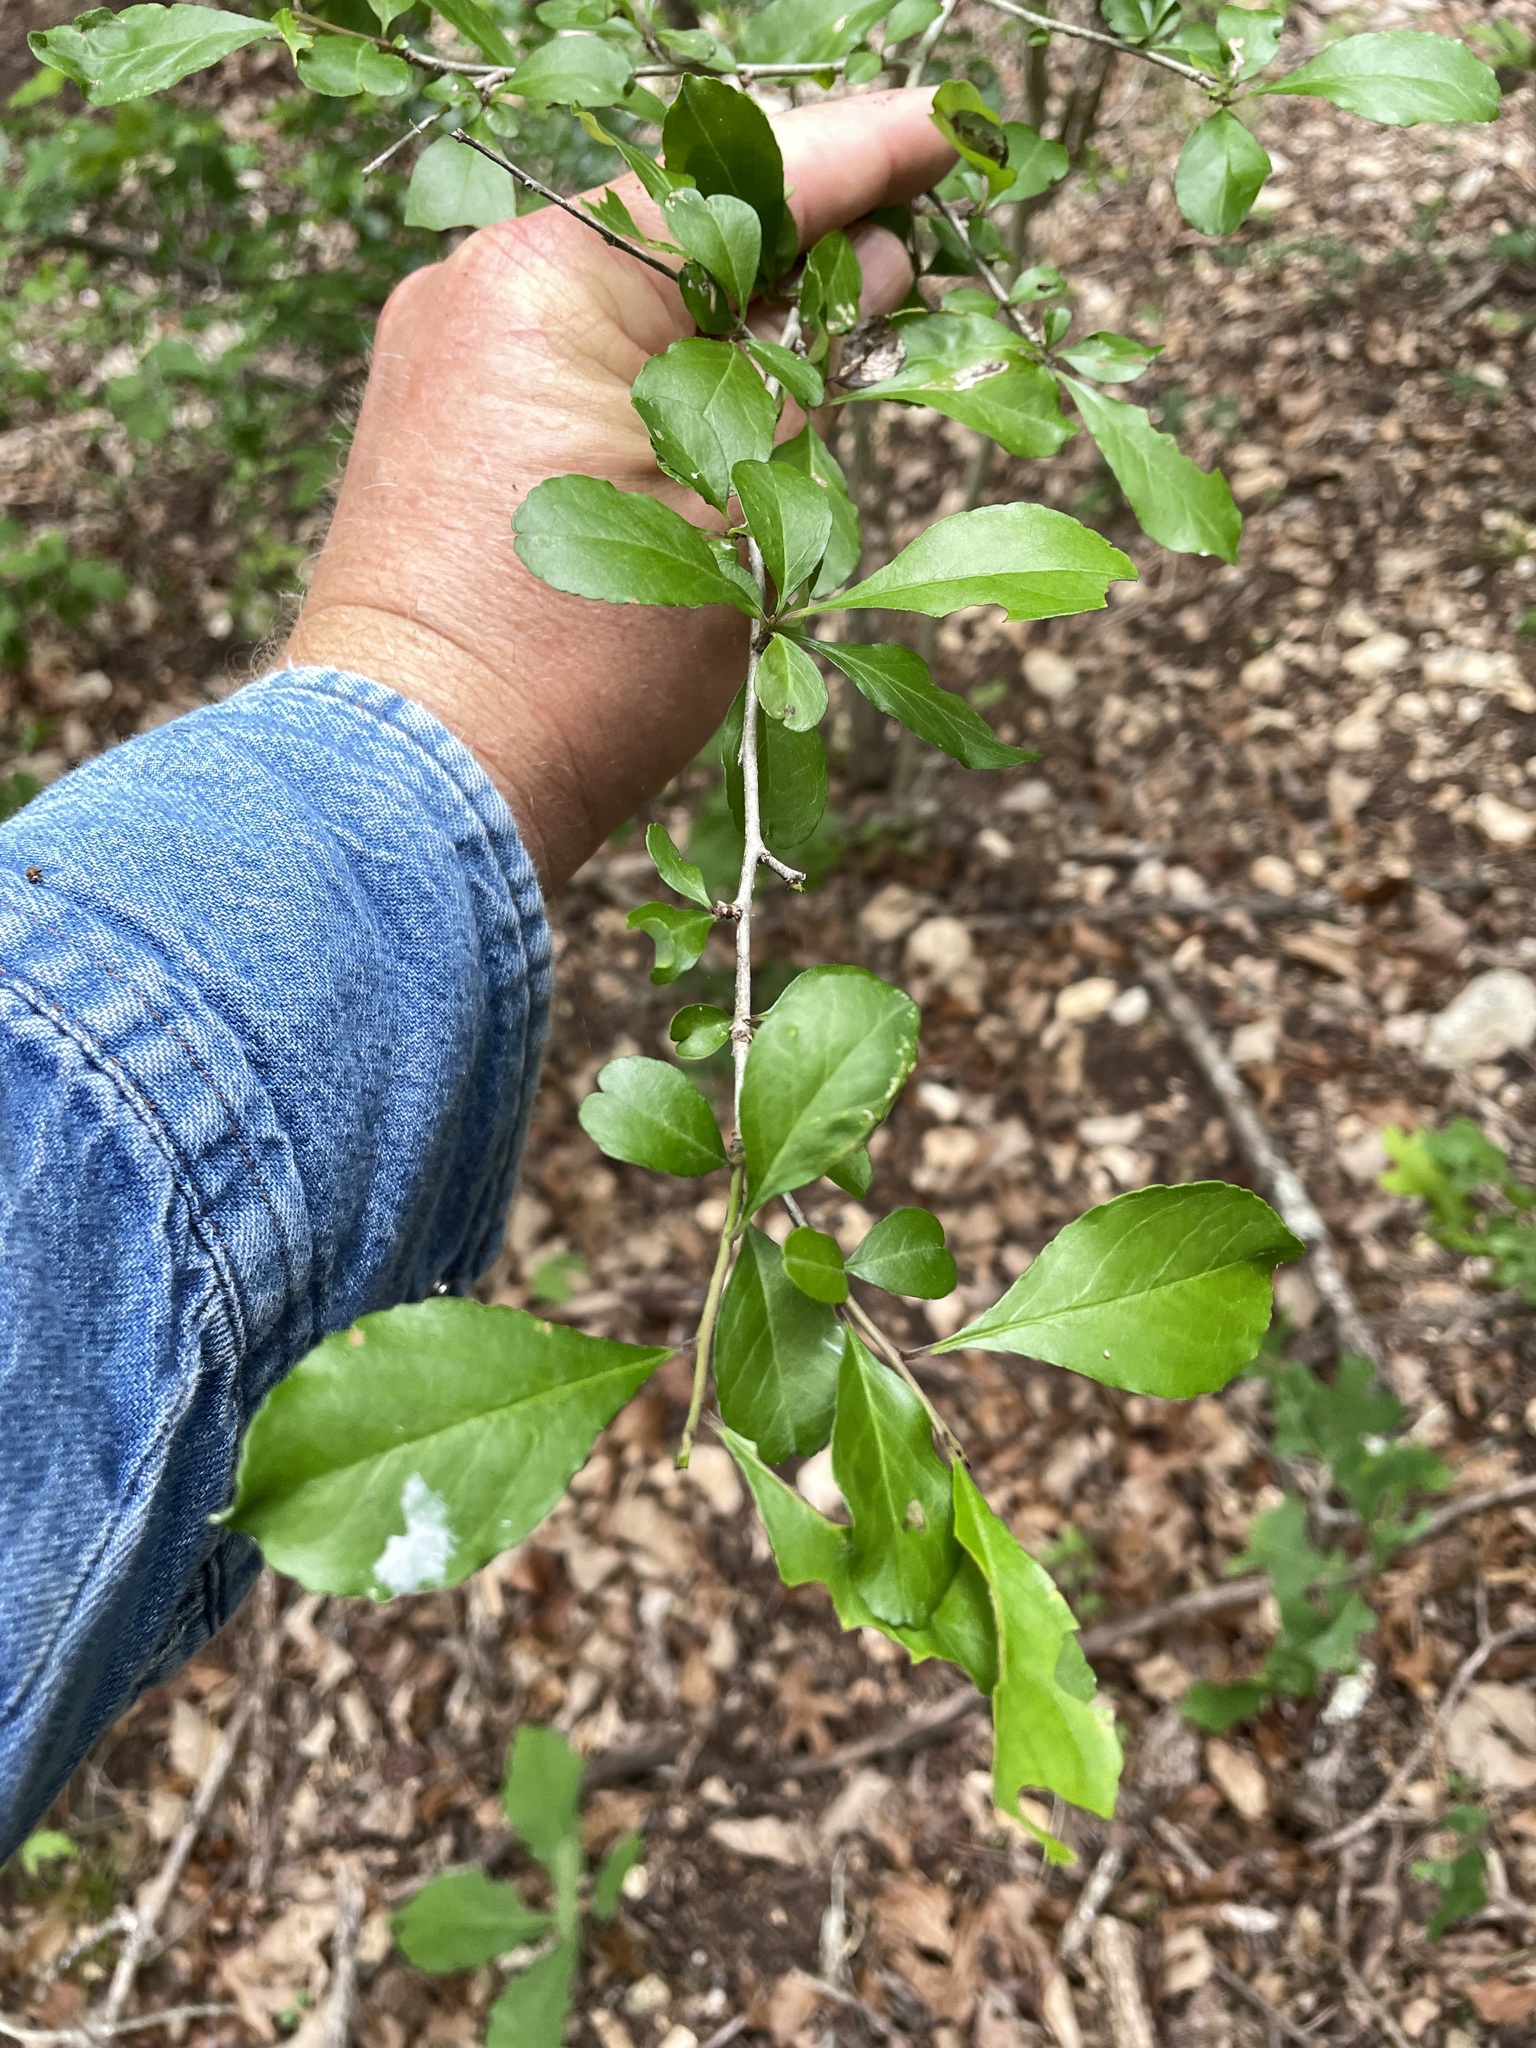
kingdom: Plantae
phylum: Tracheophyta
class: Magnoliopsida
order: Aquifoliales
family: Aquifoliaceae
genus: Ilex
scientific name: Ilex decidua
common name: Possum-haw
